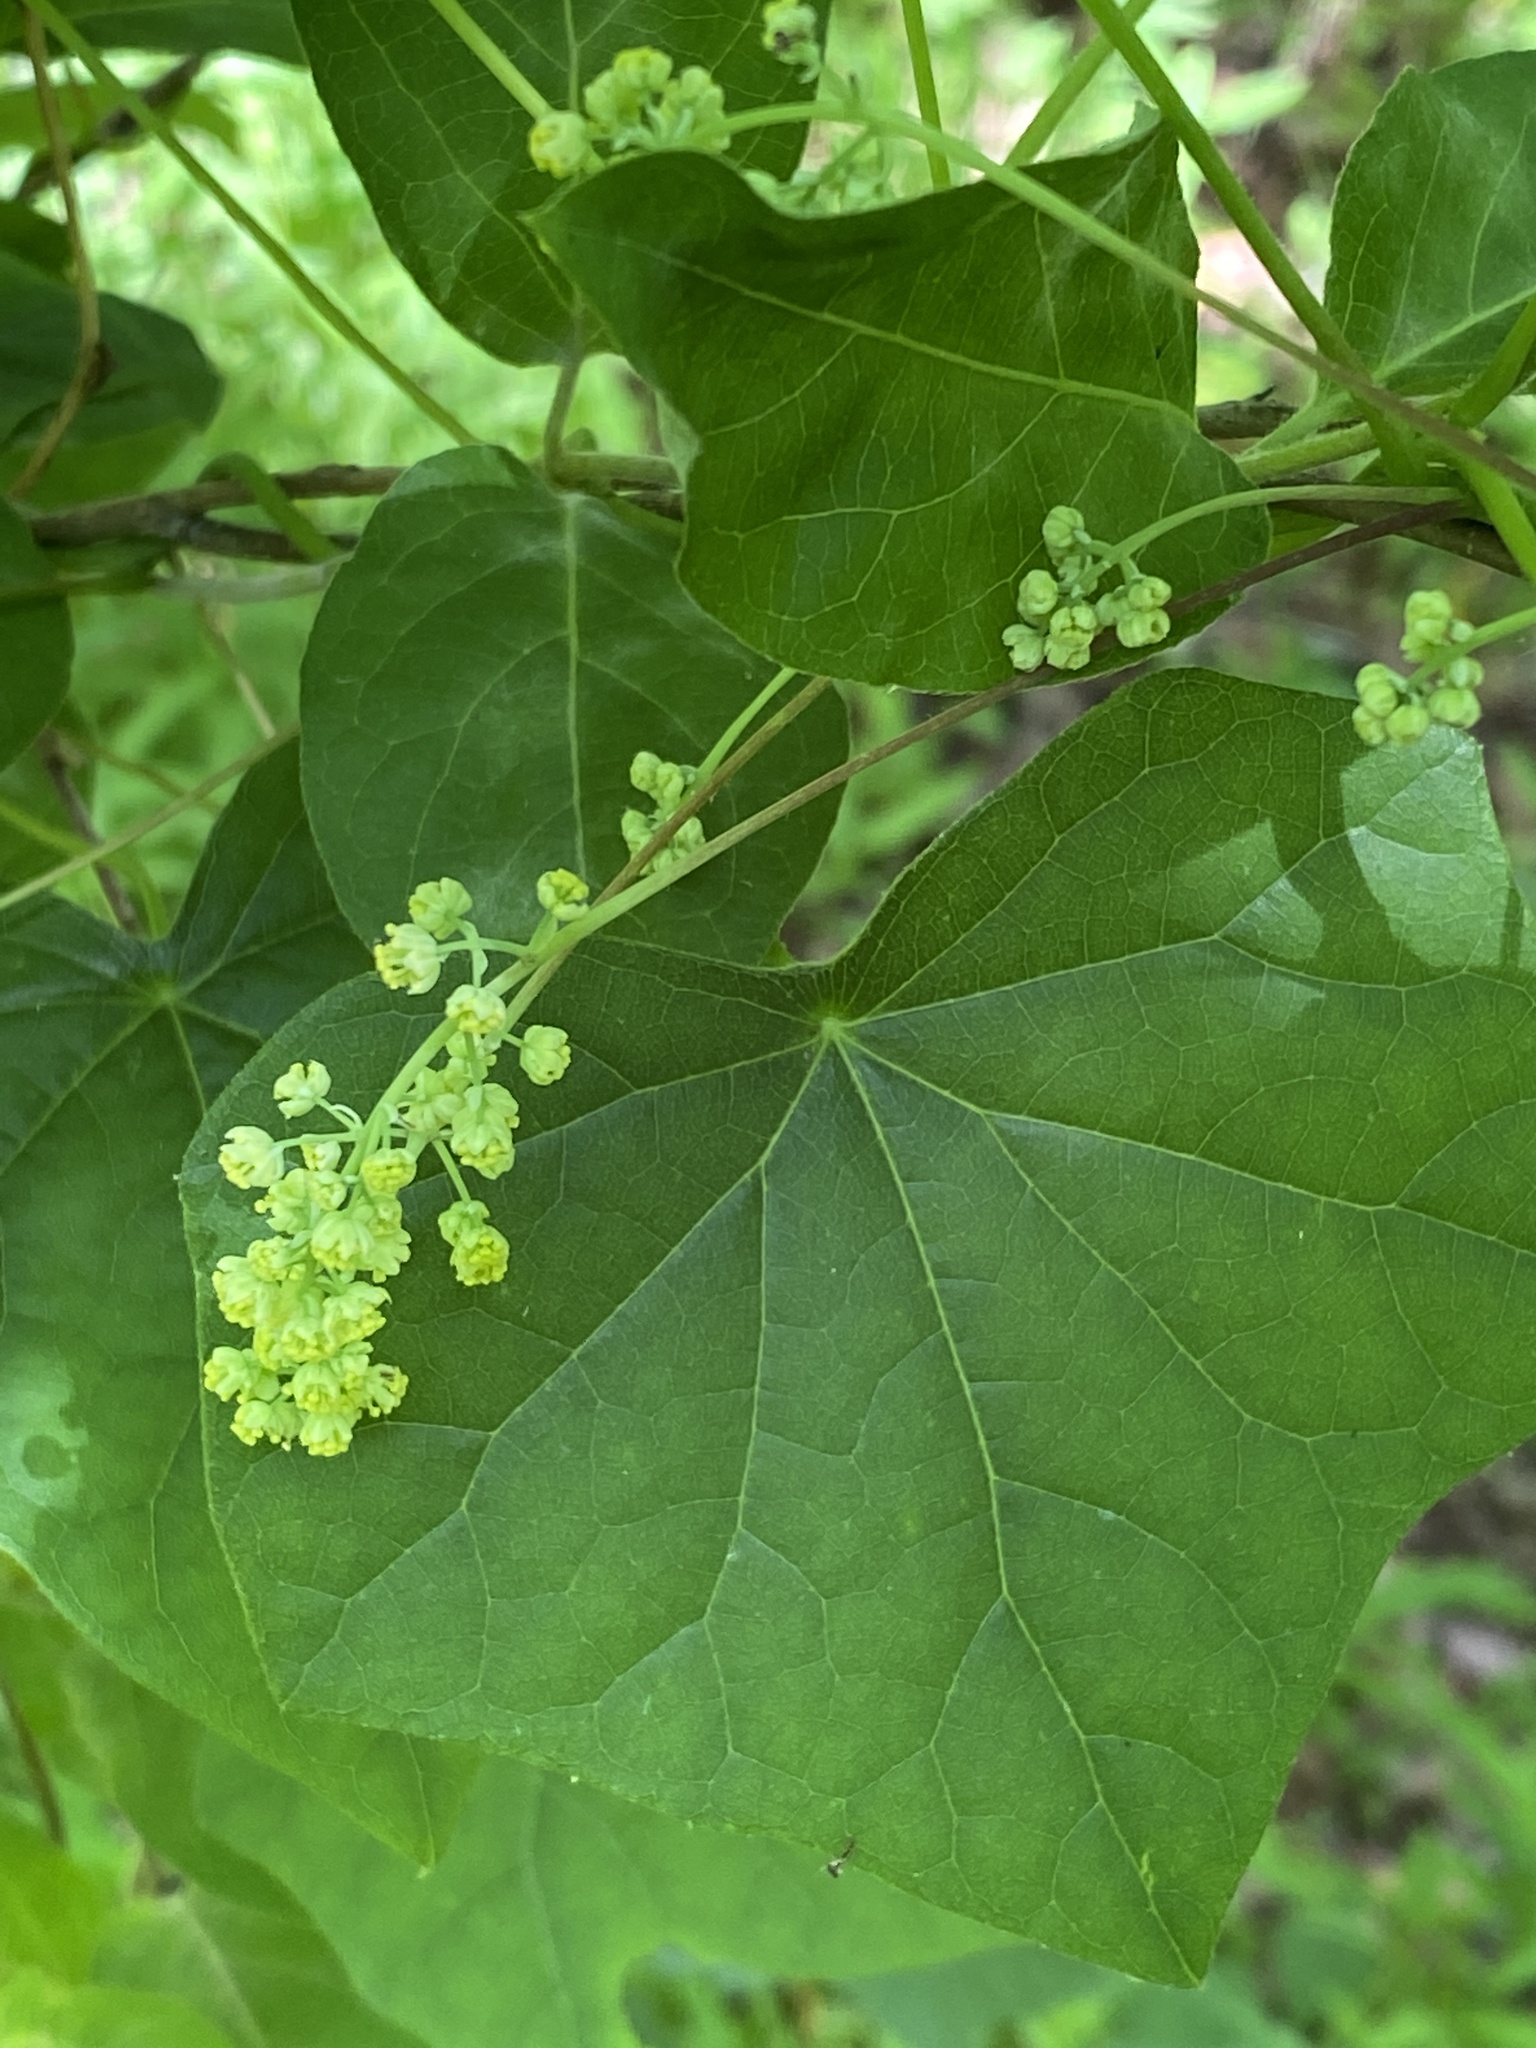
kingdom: Plantae
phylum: Tracheophyta
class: Magnoliopsida
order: Ranunculales
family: Menispermaceae
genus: Menispermum
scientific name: Menispermum canadense
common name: Moonseed
